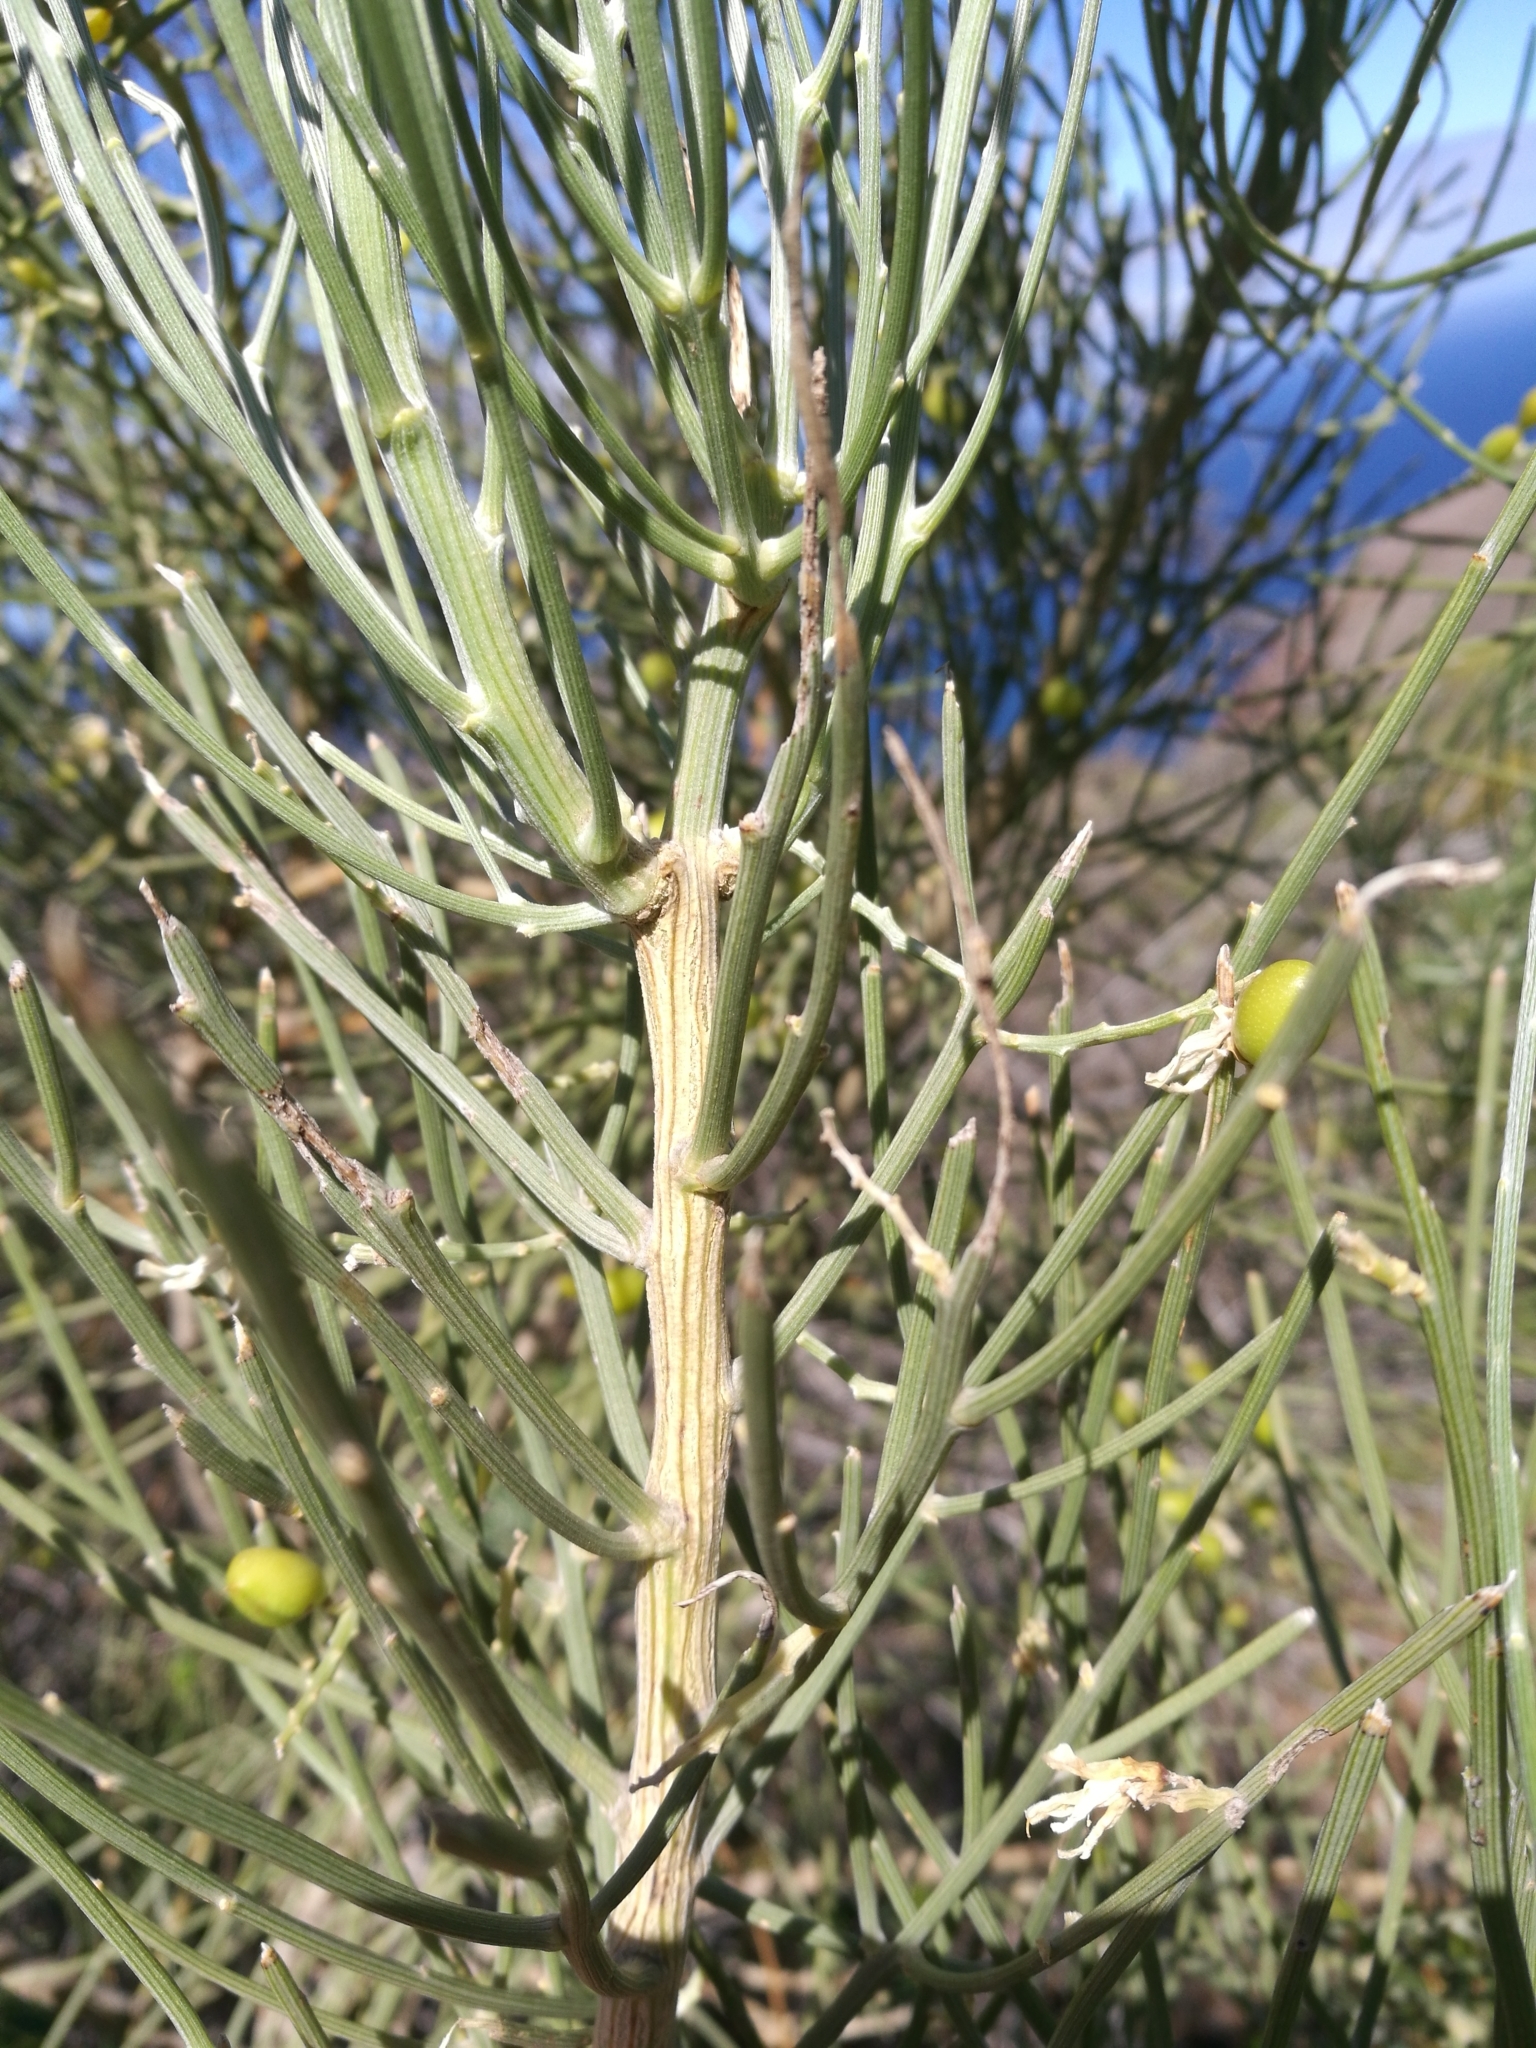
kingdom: Plantae
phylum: Tracheophyta
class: Magnoliopsida
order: Fabales
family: Fabaceae
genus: Retama
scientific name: Retama rhodorhizoides
